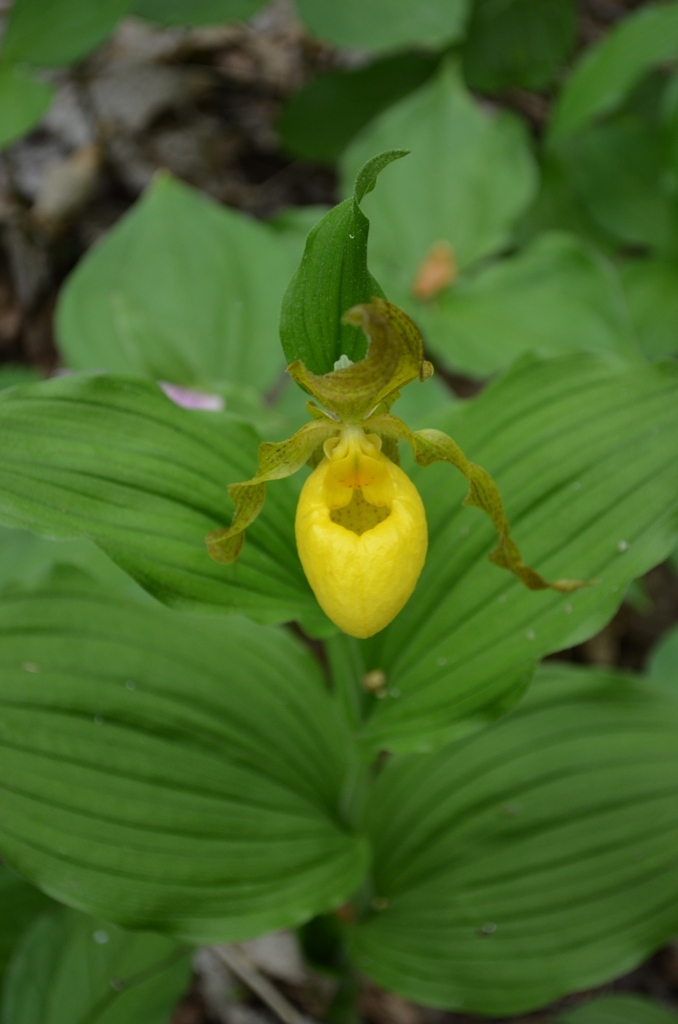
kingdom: Plantae
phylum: Tracheophyta
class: Liliopsida
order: Asparagales
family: Orchidaceae
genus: Cypripedium
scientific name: Cypripedium parviflorum
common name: American yellow lady's-slipper
